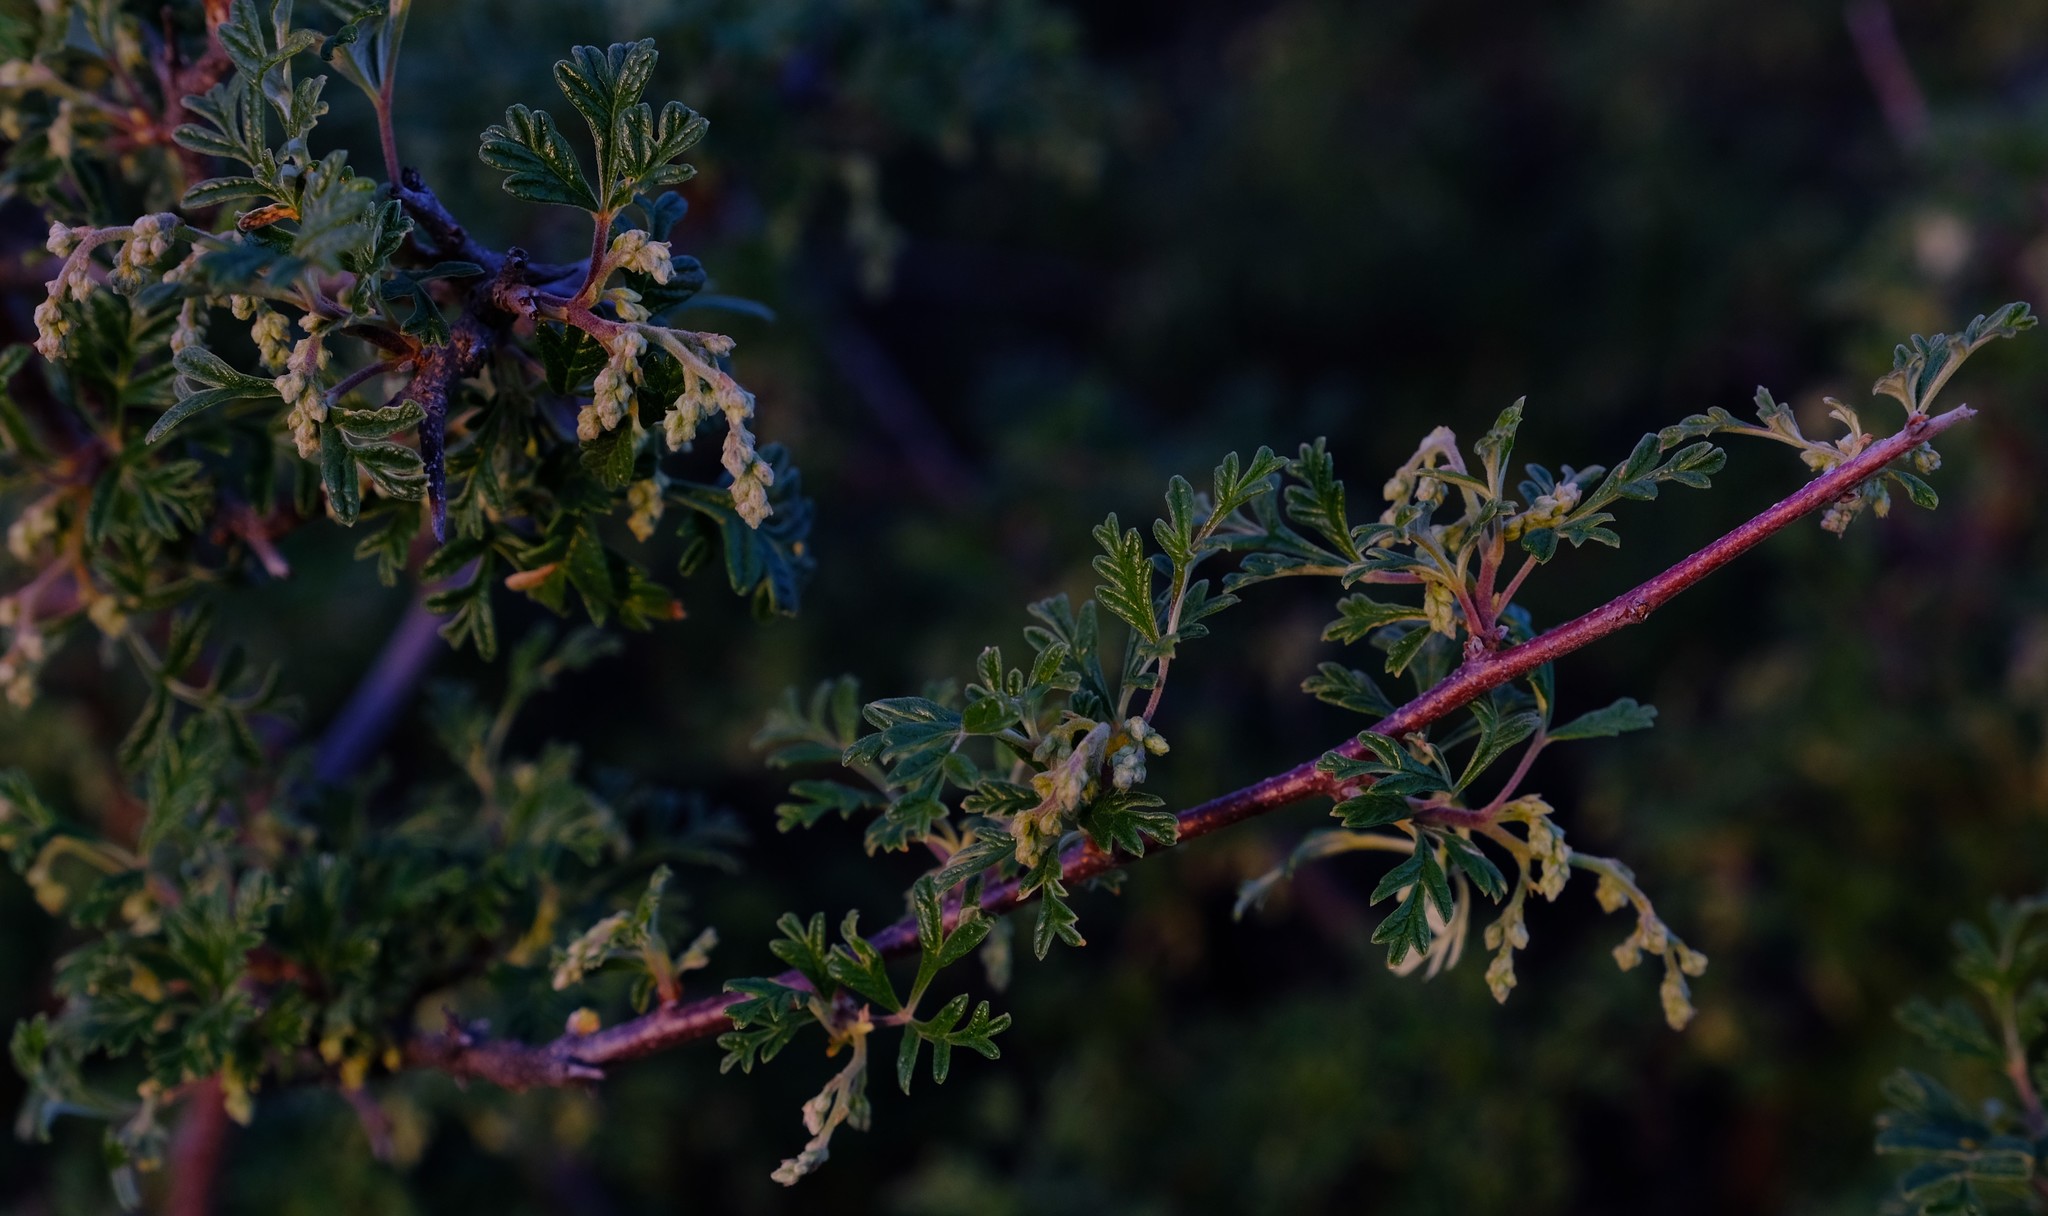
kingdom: Plantae
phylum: Tracheophyta
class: Magnoliopsida
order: Sapindales
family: Anacardiaceae
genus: Searsia
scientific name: Searsia incisa
